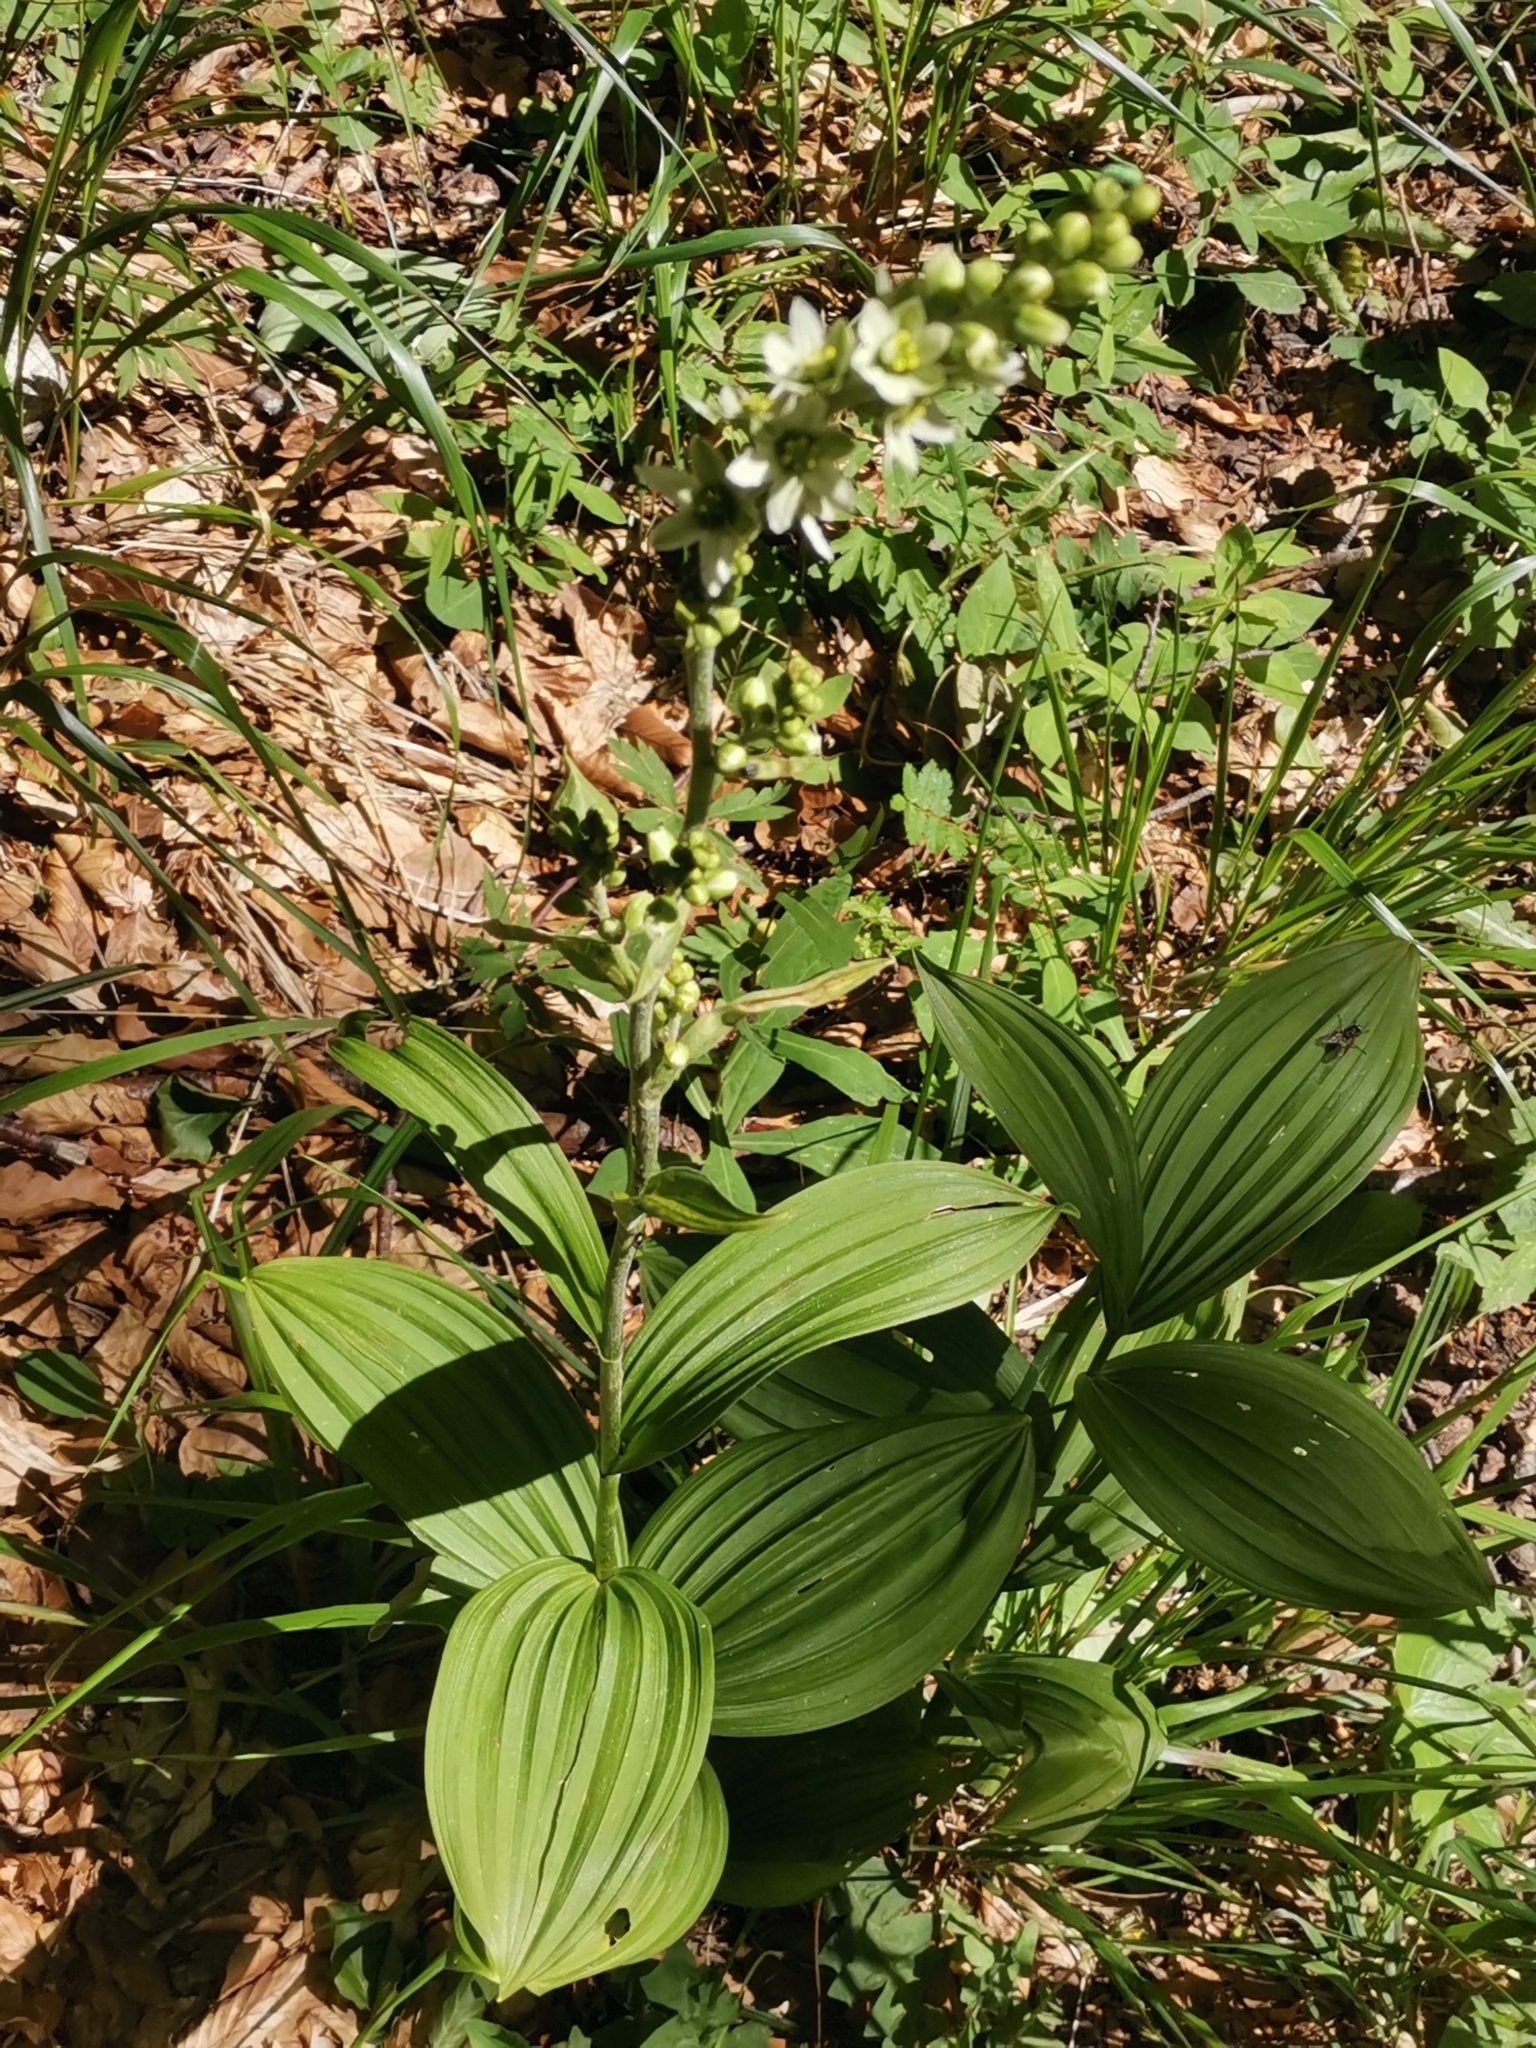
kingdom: Plantae
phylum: Tracheophyta
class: Liliopsida
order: Liliales
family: Melanthiaceae
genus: Veratrum
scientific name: Veratrum album
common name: White veratrum
